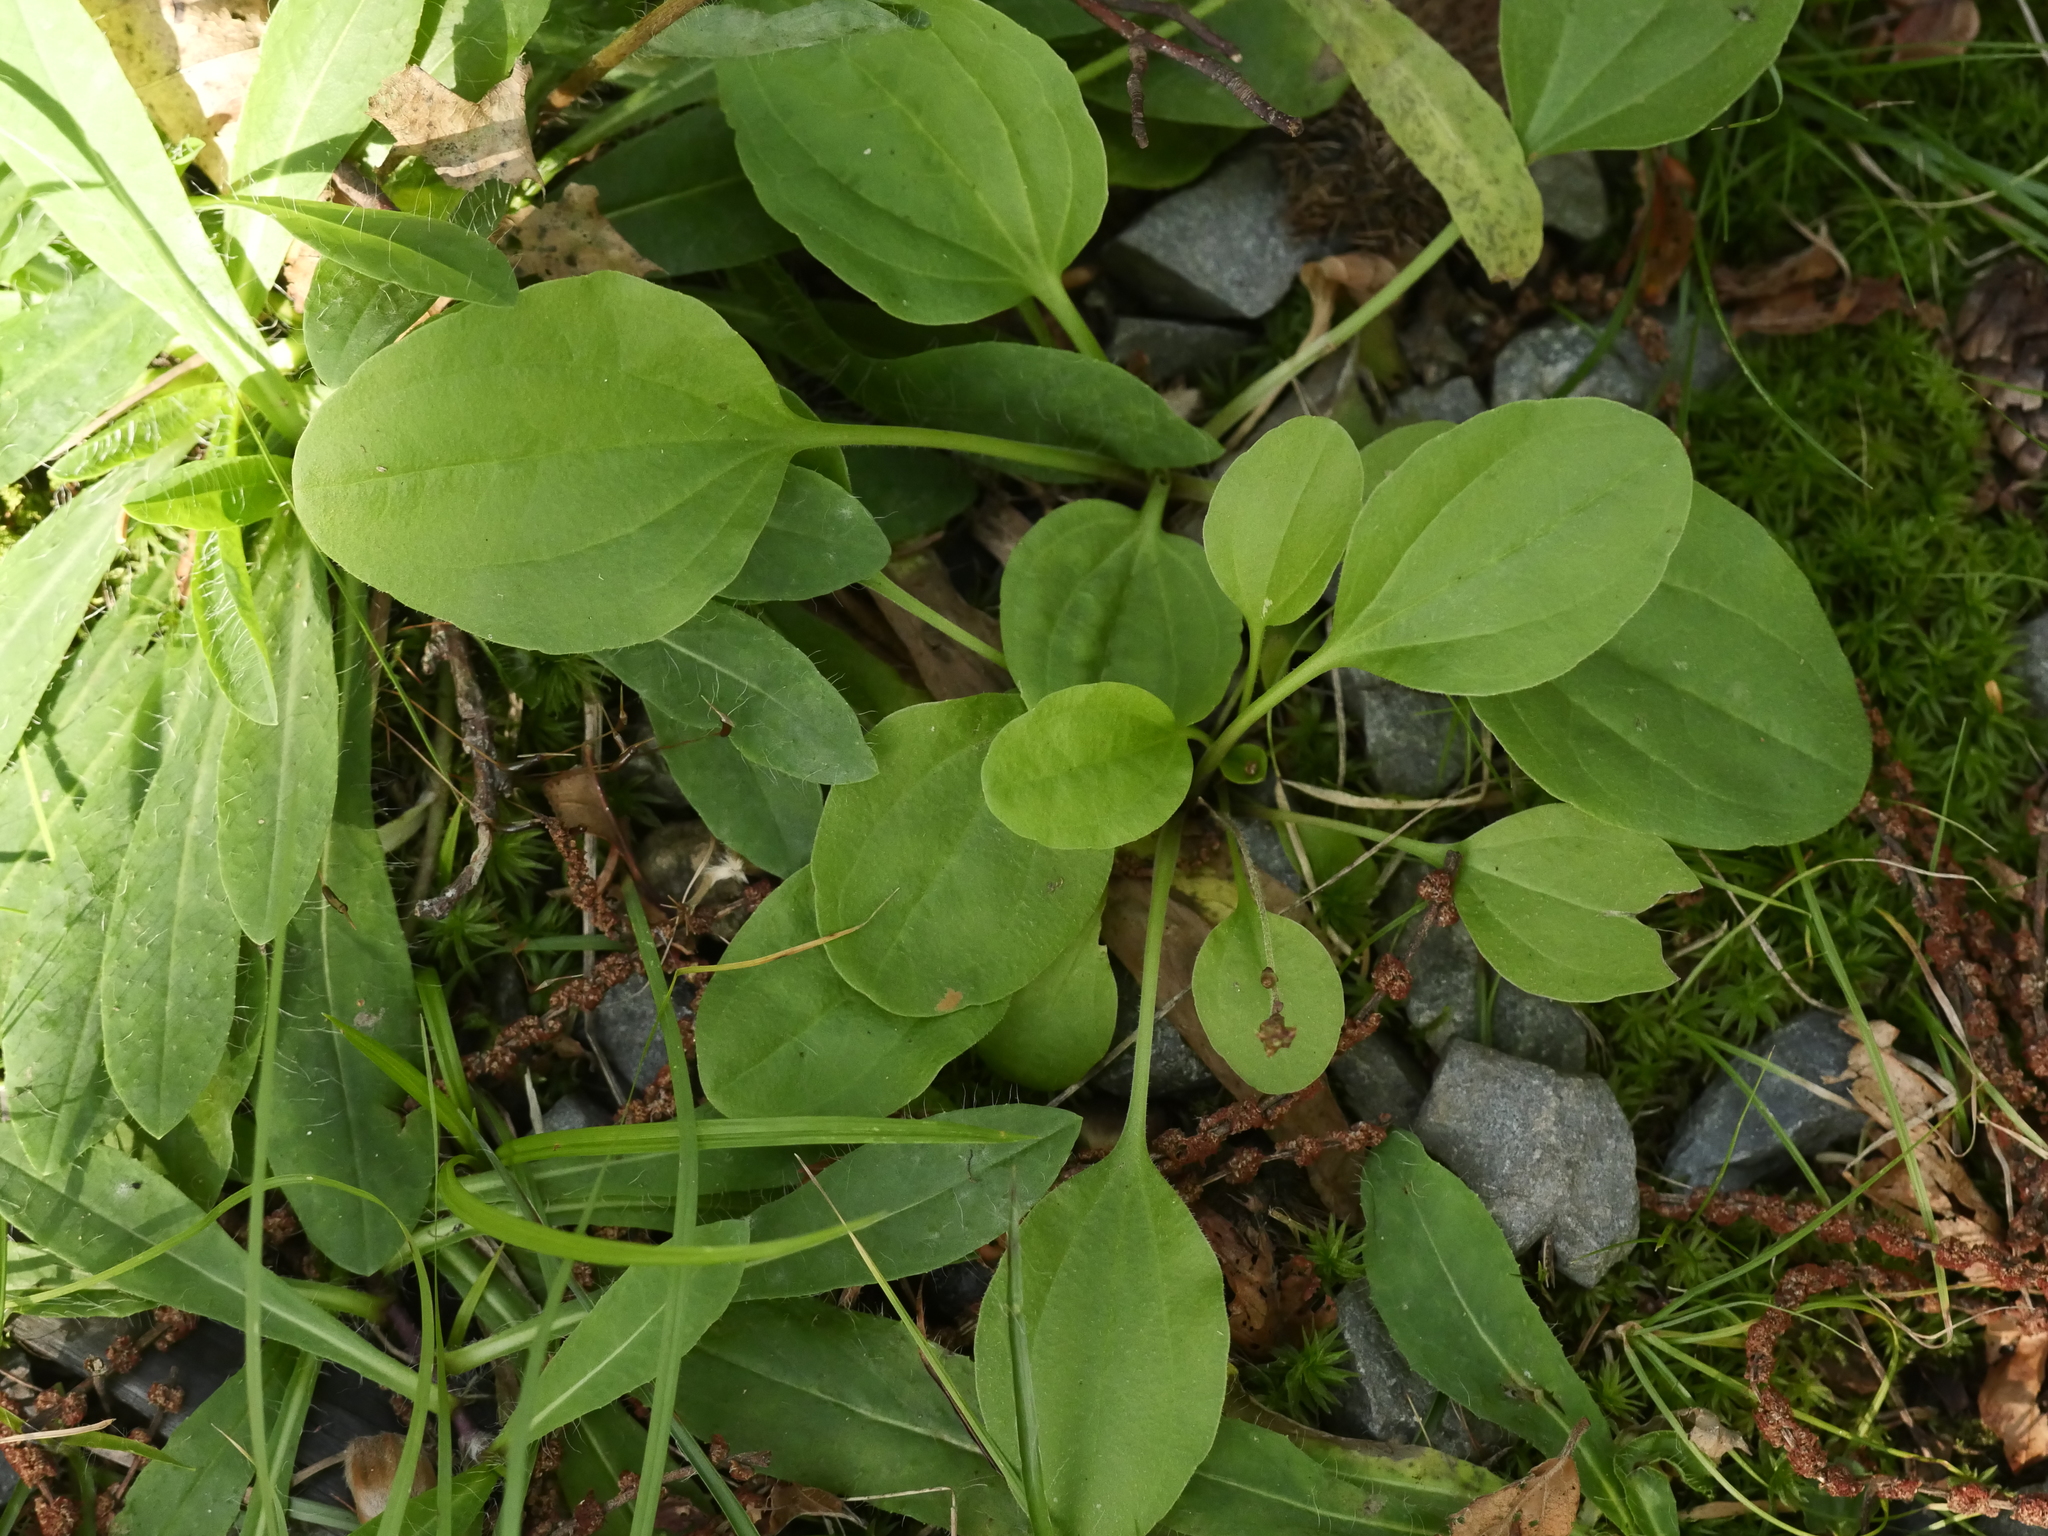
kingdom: Plantae
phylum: Tracheophyta
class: Magnoliopsida
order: Lamiales
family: Plantaginaceae
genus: Plantago
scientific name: Plantago major
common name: Common plantain
